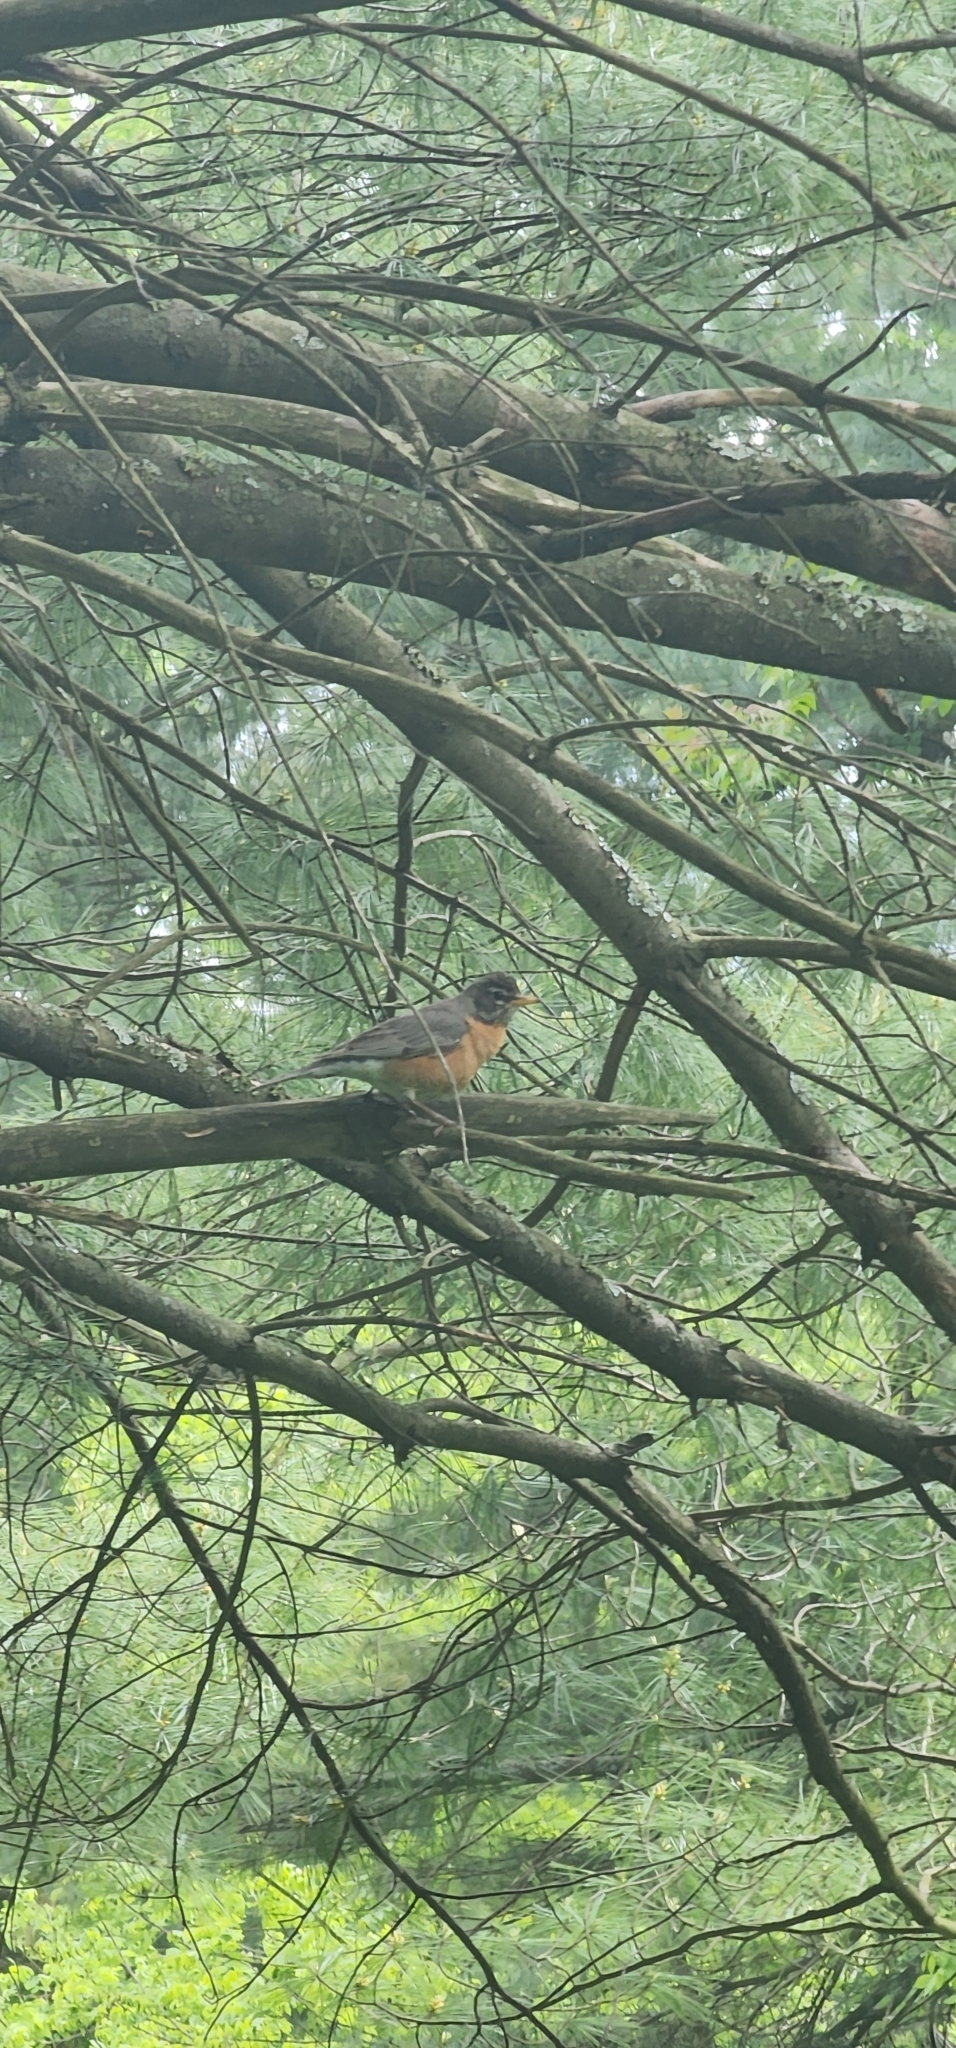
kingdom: Animalia
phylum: Chordata
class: Aves
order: Passeriformes
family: Turdidae
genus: Turdus
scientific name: Turdus migratorius
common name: American robin
